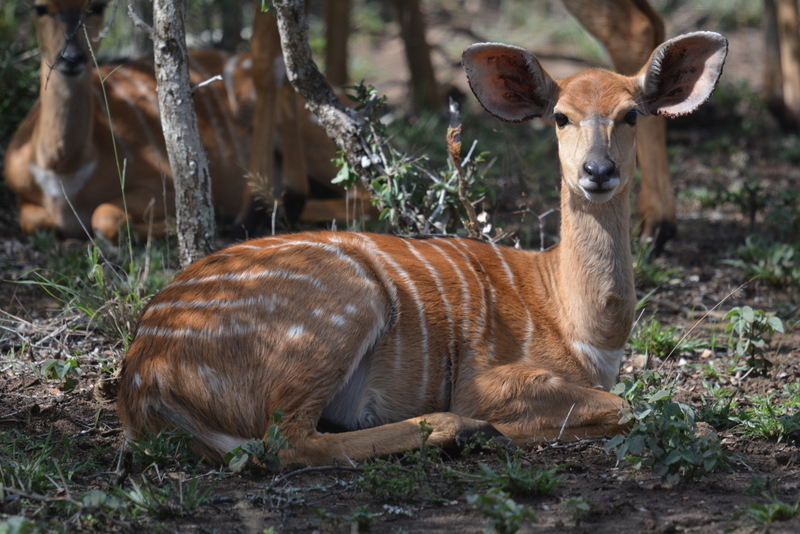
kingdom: Animalia
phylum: Chordata
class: Mammalia
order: Artiodactyla
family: Bovidae
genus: Tragelaphus
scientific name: Tragelaphus angasii
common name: Nyala
